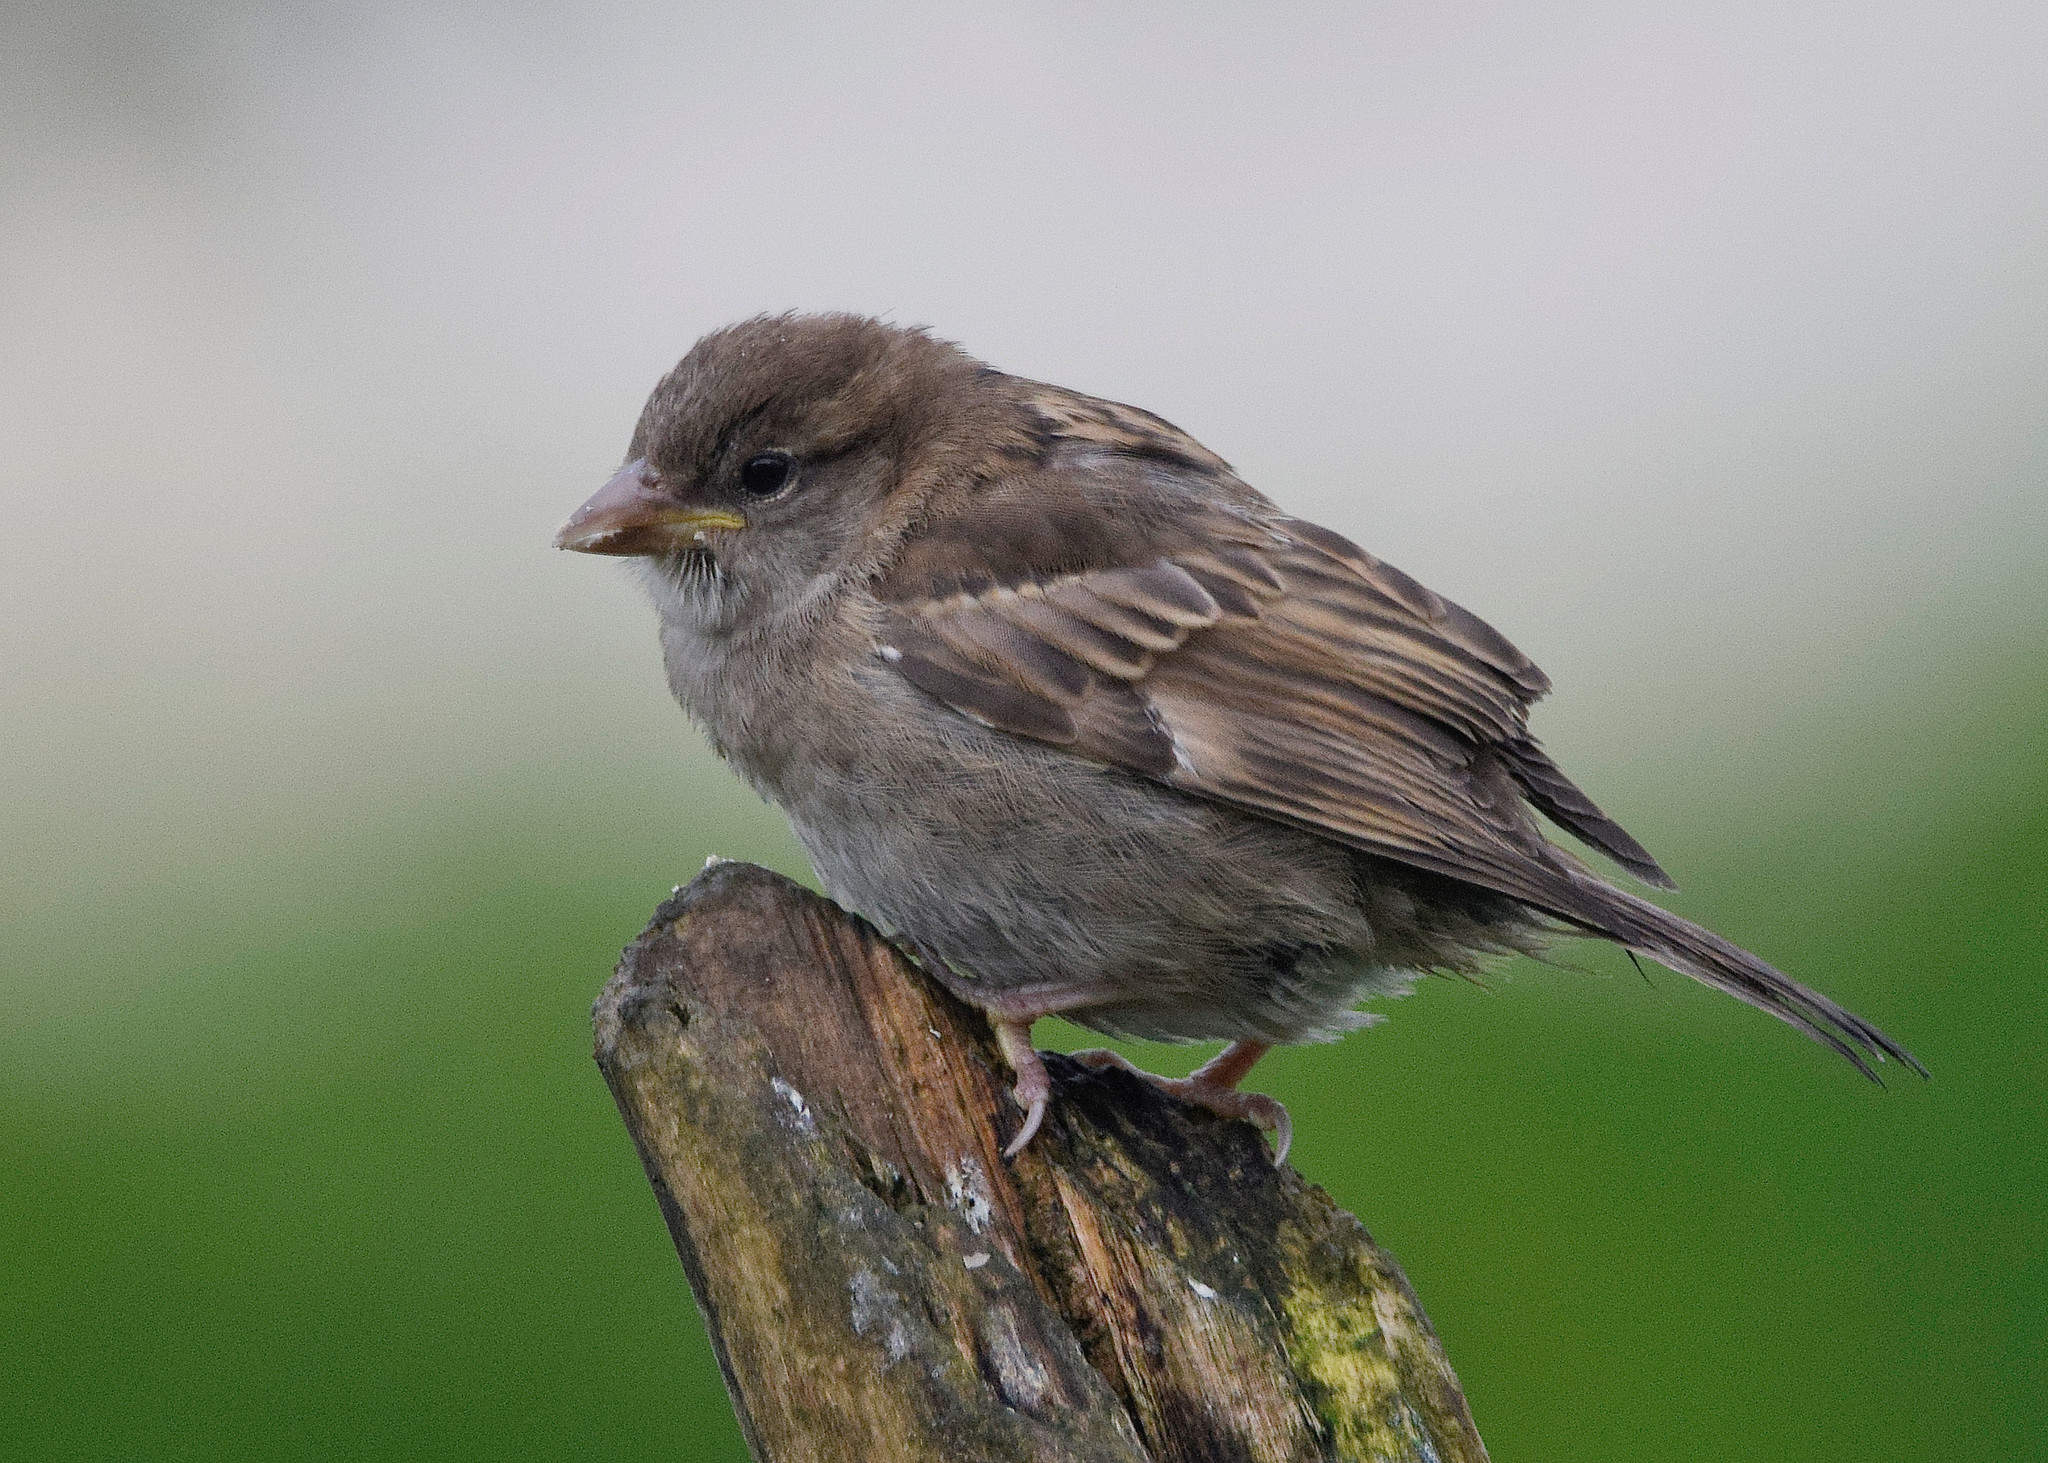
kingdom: Animalia
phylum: Chordata
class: Aves
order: Passeriformes
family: Passeridae
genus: Passer
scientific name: Passer domesticus
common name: House sparrow
